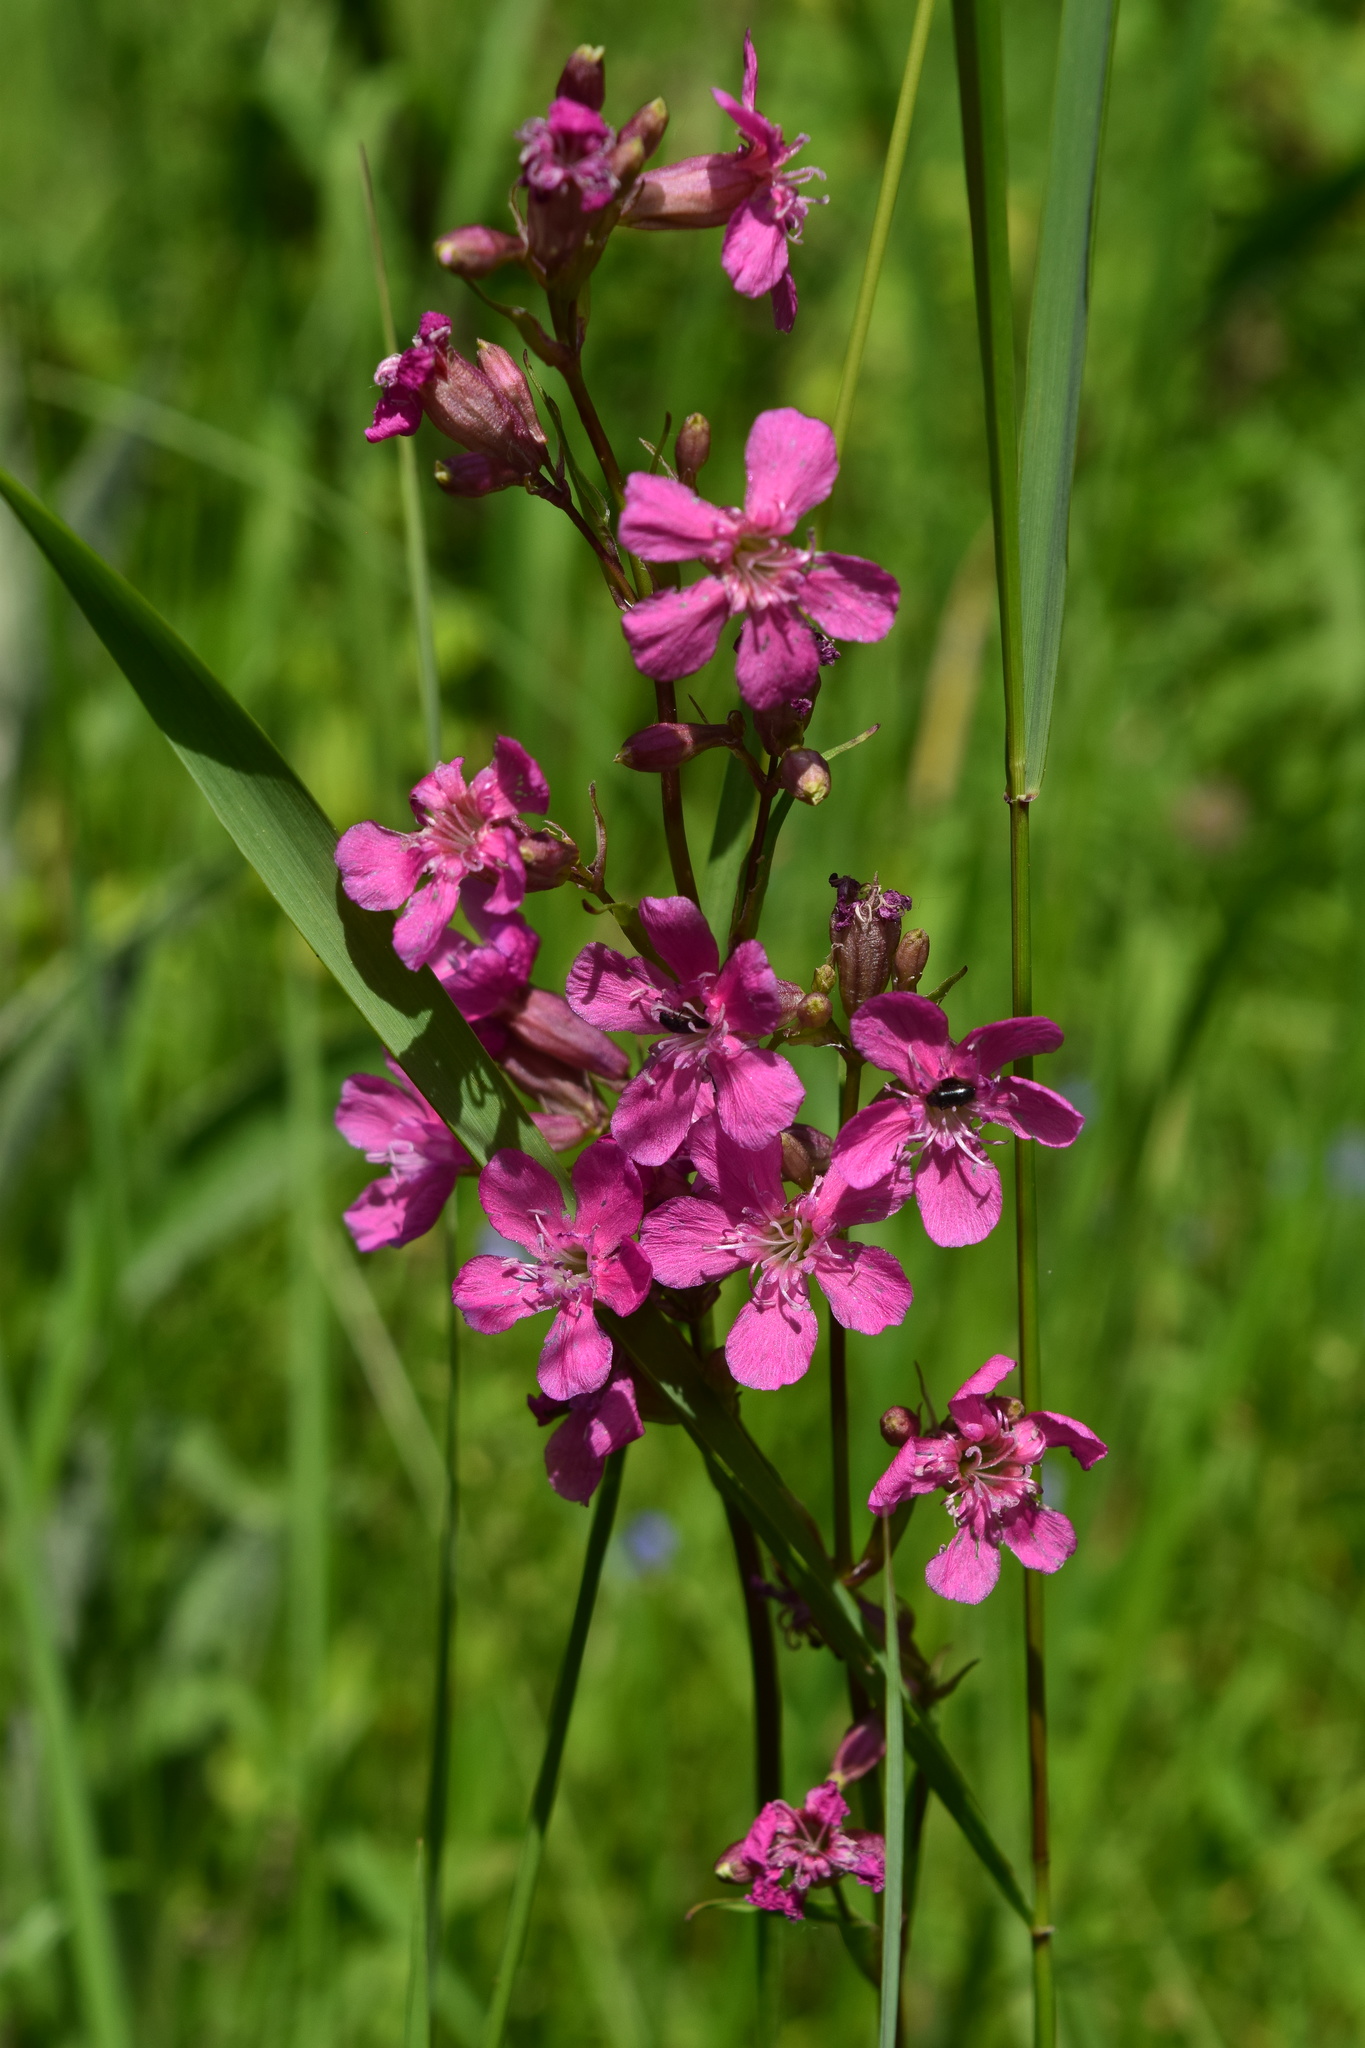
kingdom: Plantae
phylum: Tracheophyta
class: Magnoliopsida
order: Caryophyllales
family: Caryophyllaceae
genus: Viscaria
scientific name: Viscaria vulgaris
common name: Clammy campion
